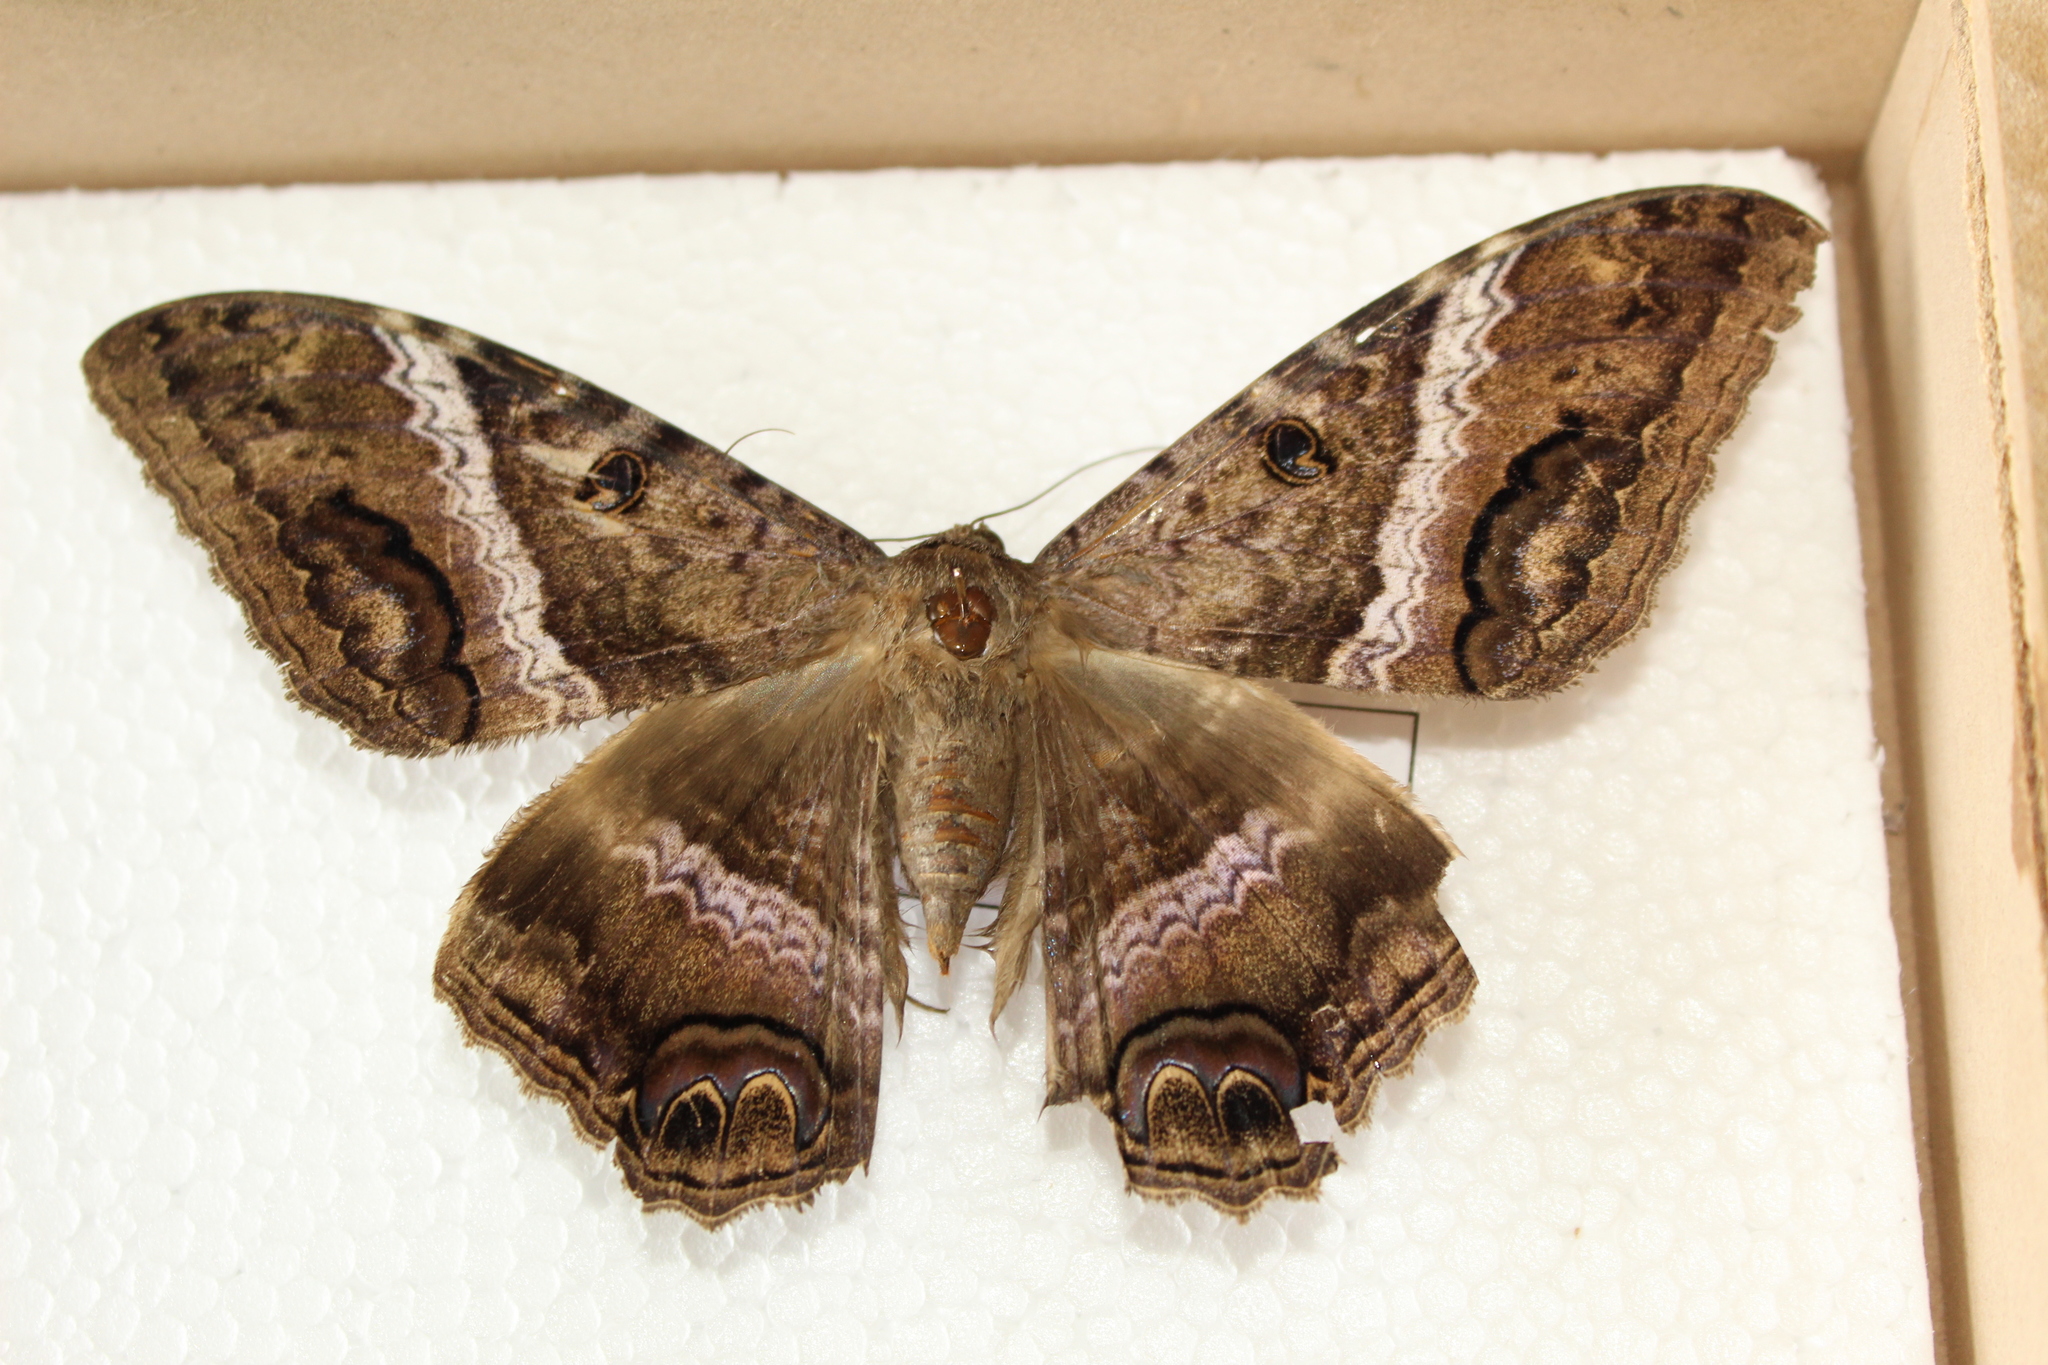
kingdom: Animalia
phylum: Arthropoda
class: Insecta
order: Lepidoptera
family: Erebidae
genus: Ascalapha
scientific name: Ascalapha odorata
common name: Black witch
